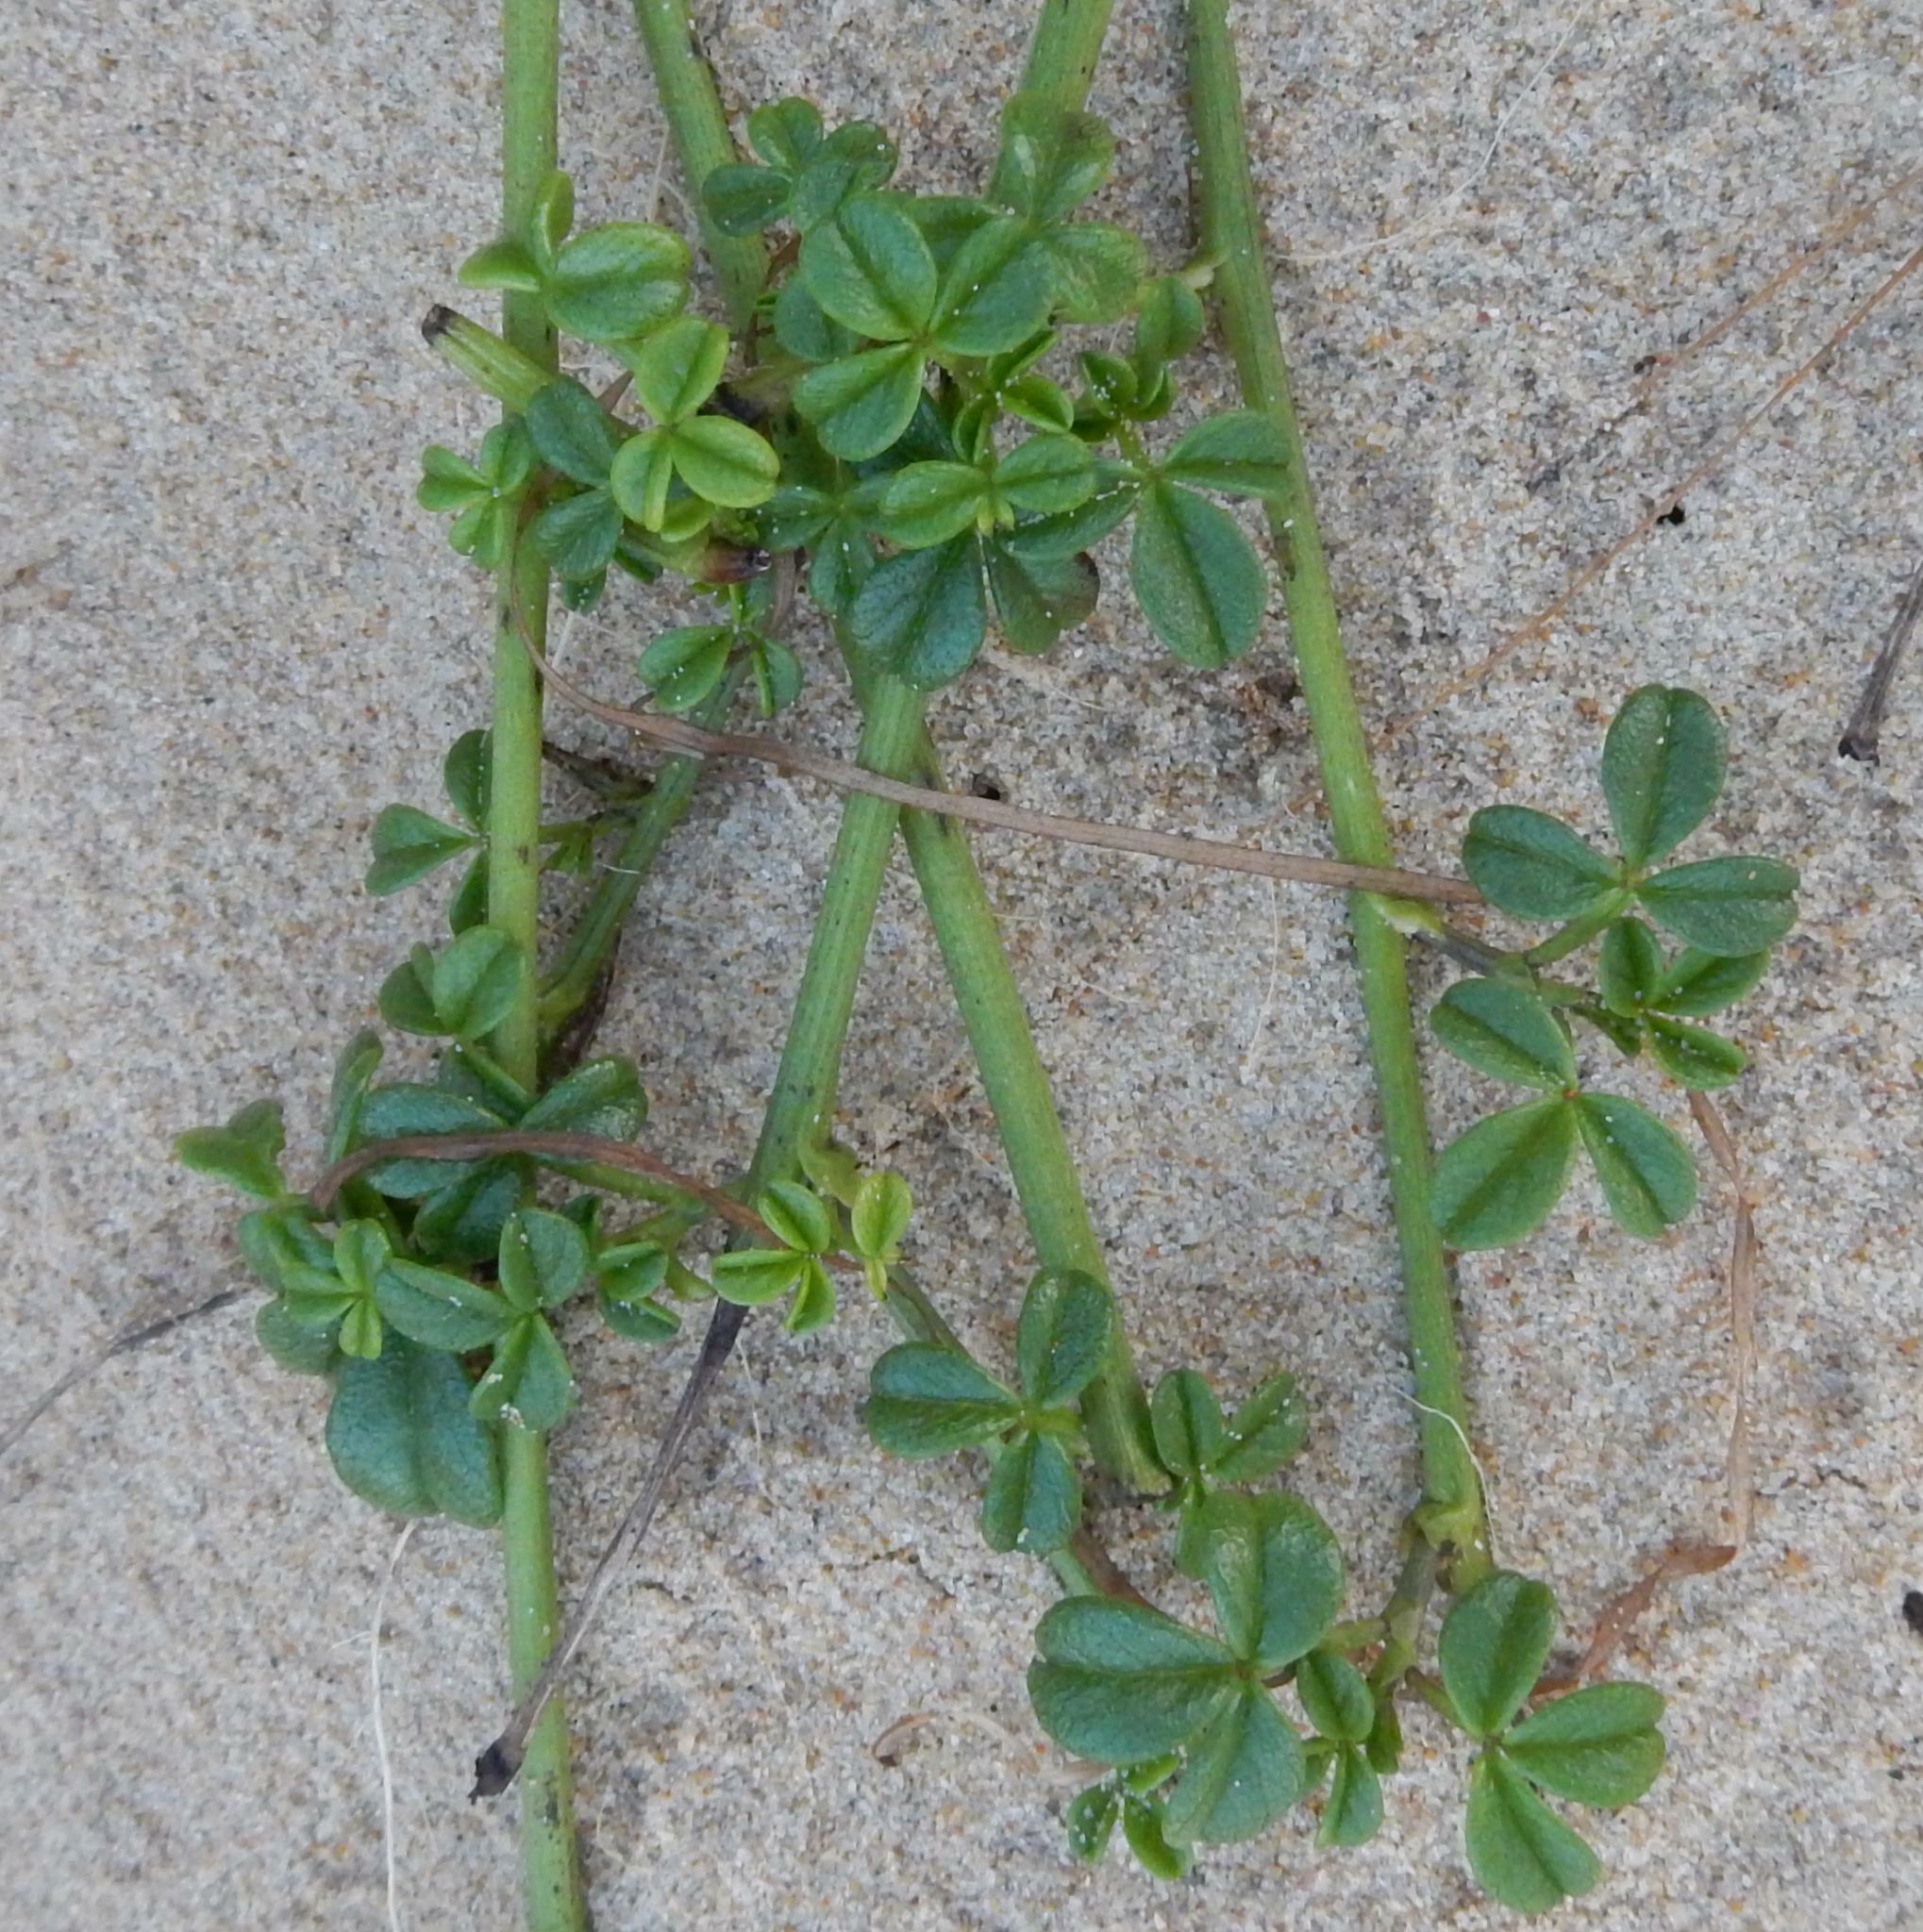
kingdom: Plantae
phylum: Tracheophyta
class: Magnoliopsida
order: Fabales
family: Fabaceae
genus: Psoralea
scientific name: Psoralea repens
